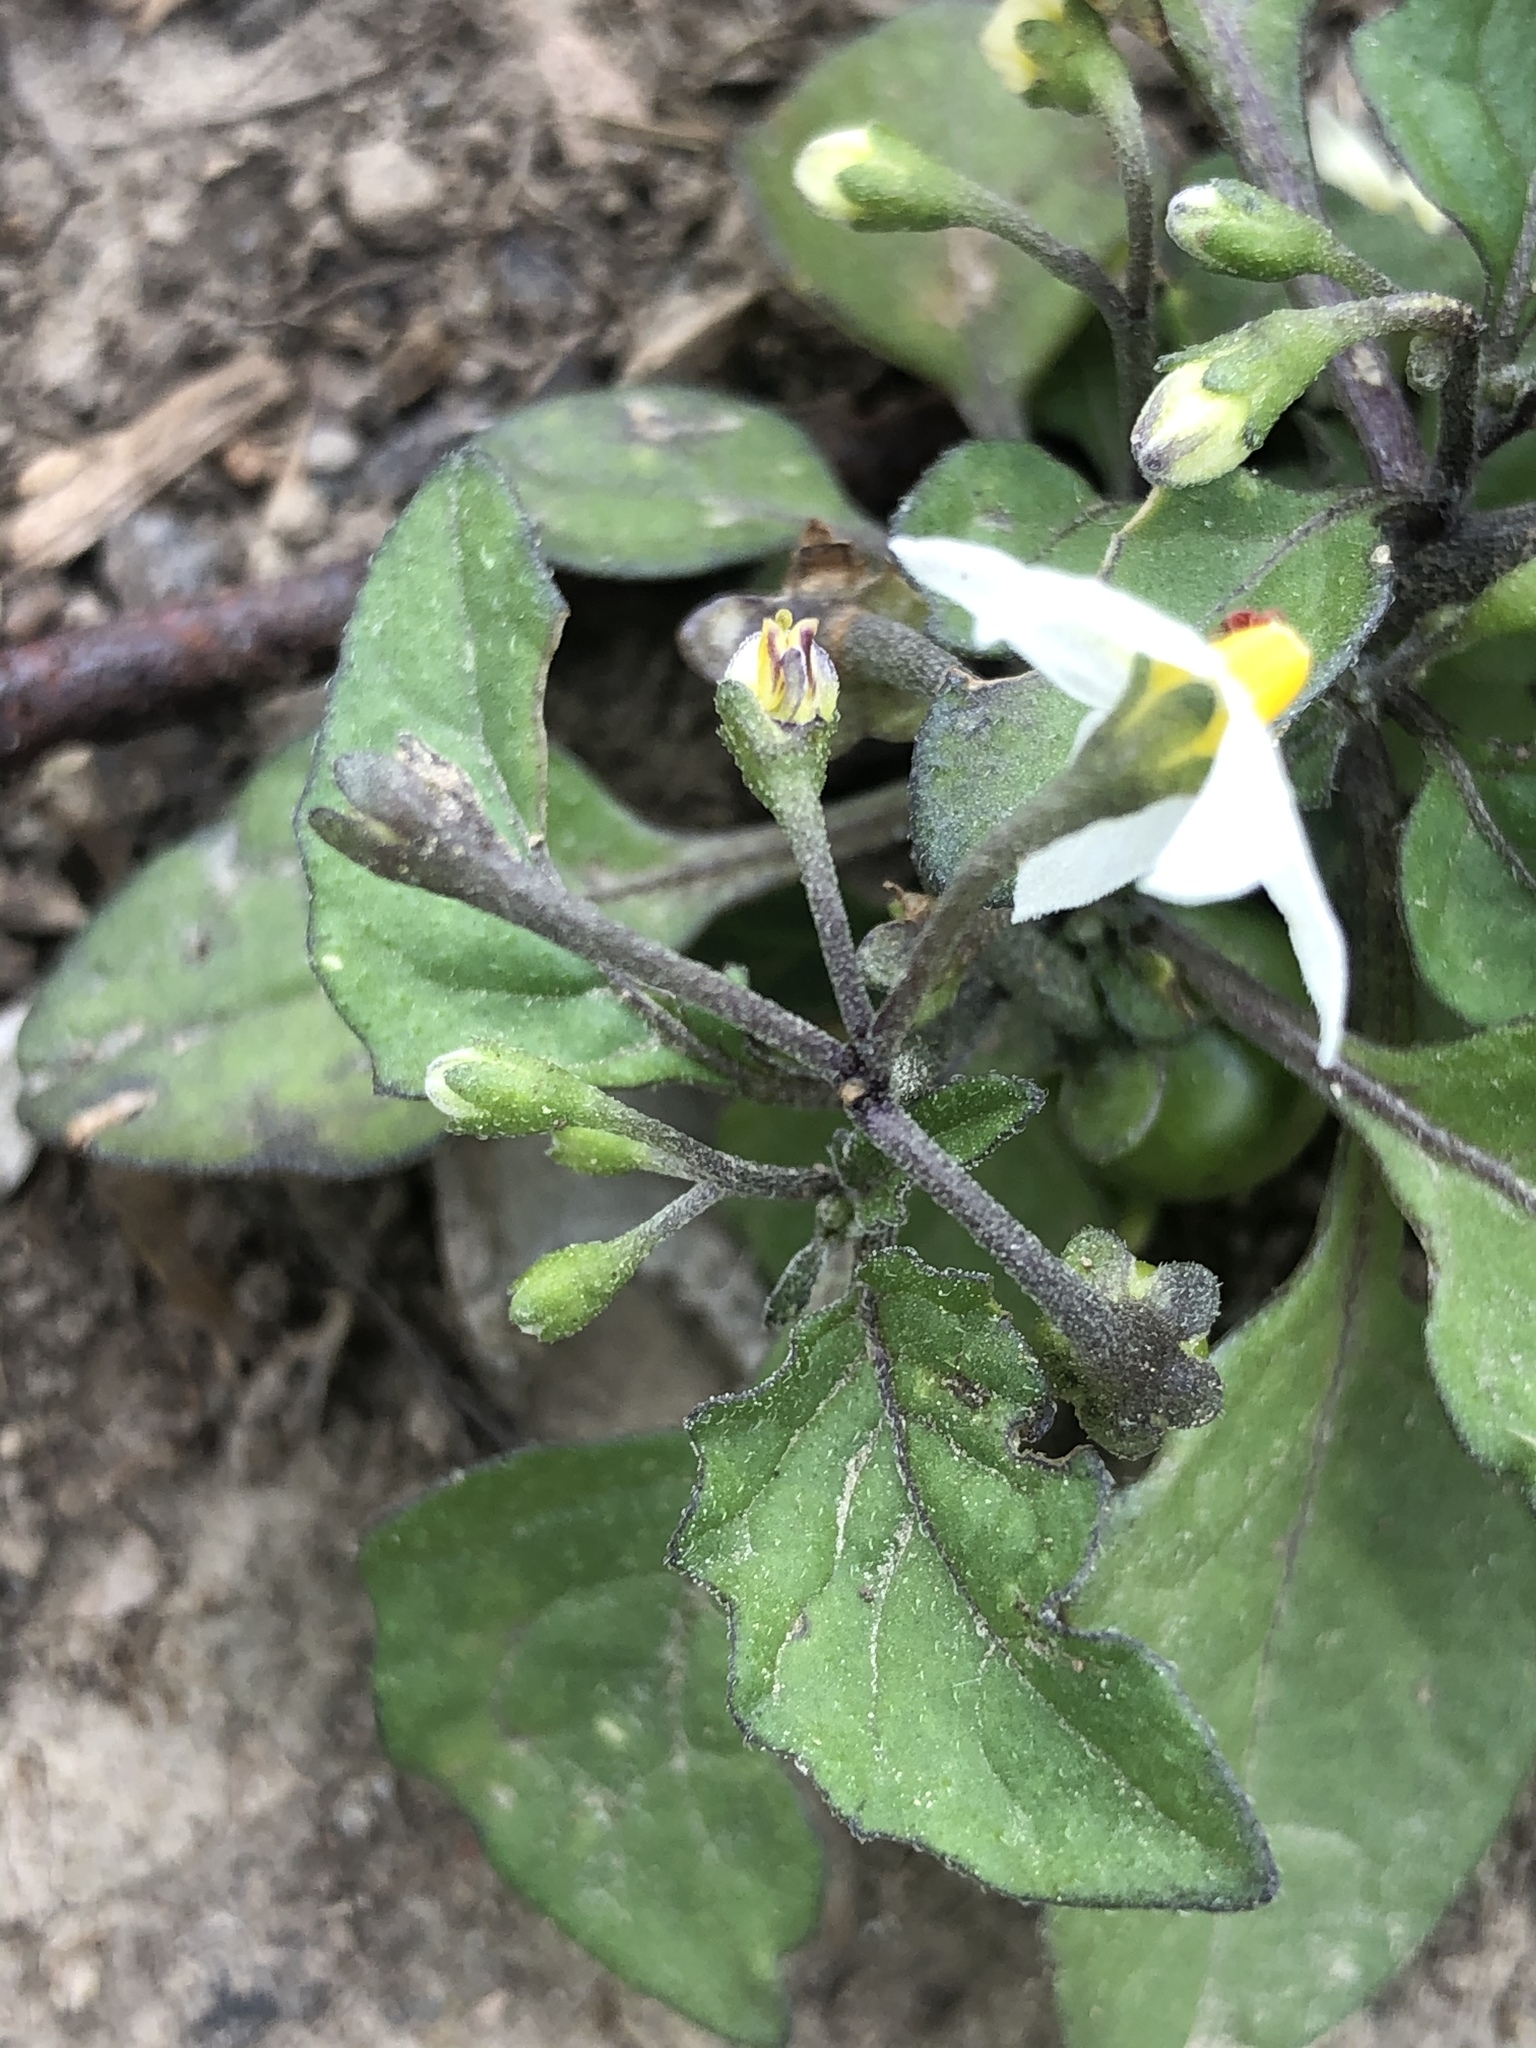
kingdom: Plantae
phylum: Tracheophyta
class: Magnoliopsida
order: Solanales
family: Solanaceae
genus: Solanum
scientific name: Solanum nigrum
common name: Black nightshade
